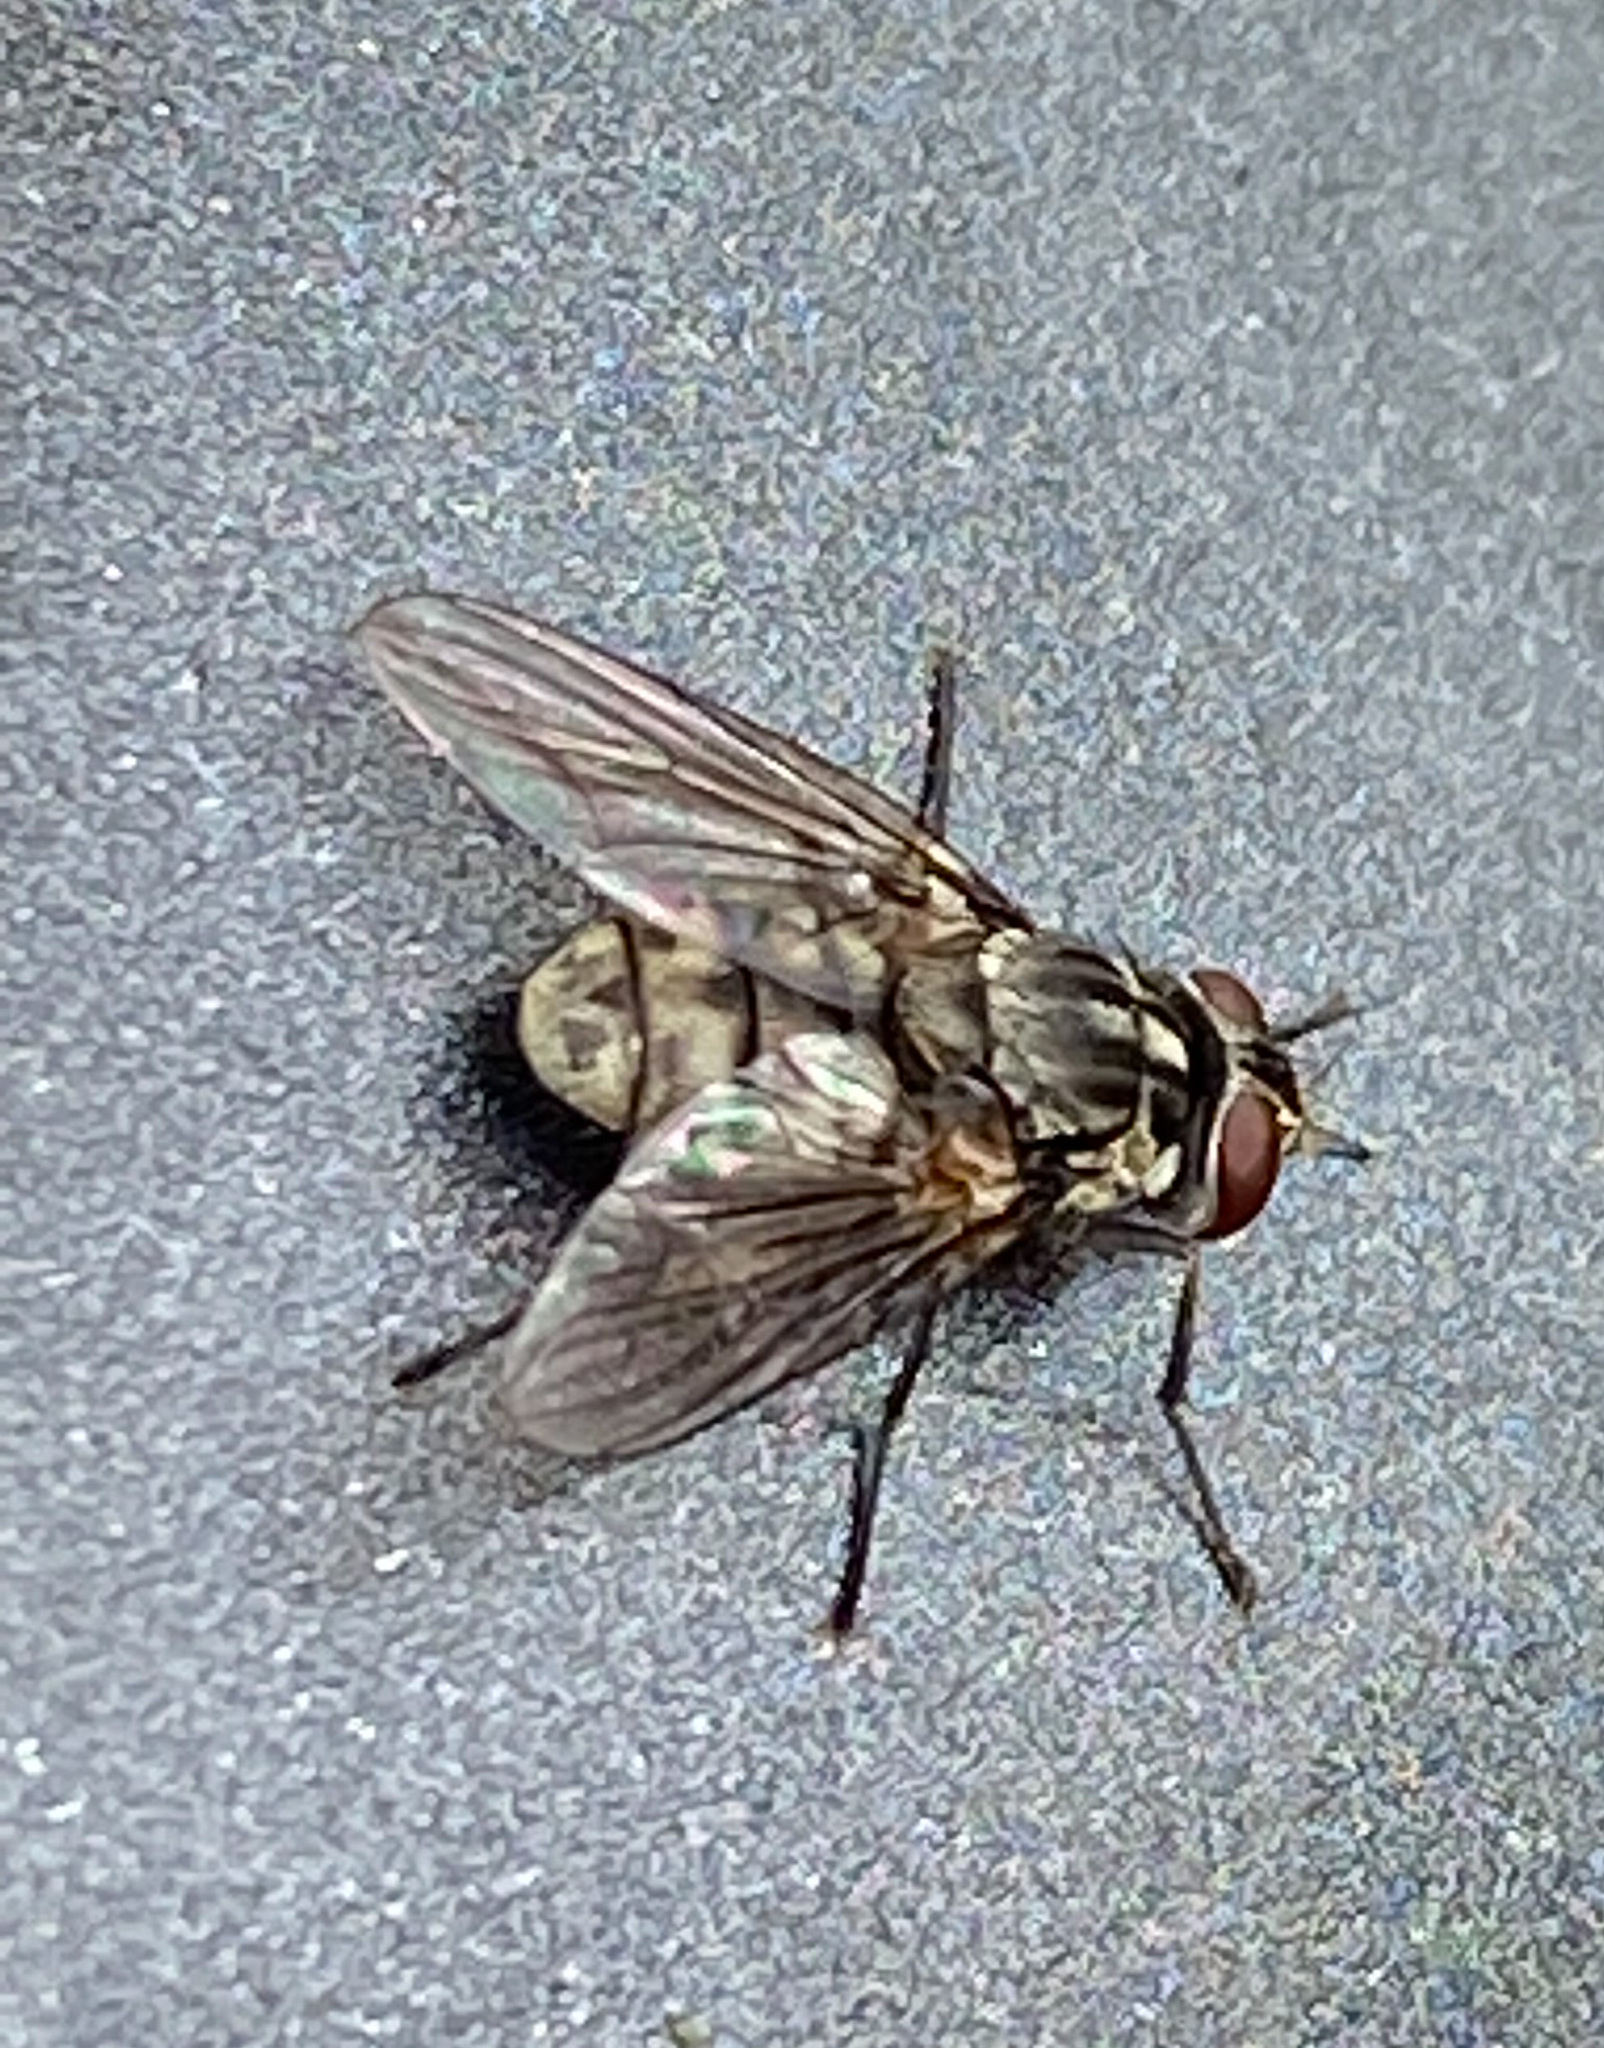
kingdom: Animalia
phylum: Arthropoda
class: Insecta
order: Diptera
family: Muscidae
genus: Stomoxys
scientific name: Stomoxys calcitrans
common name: Stable fly
